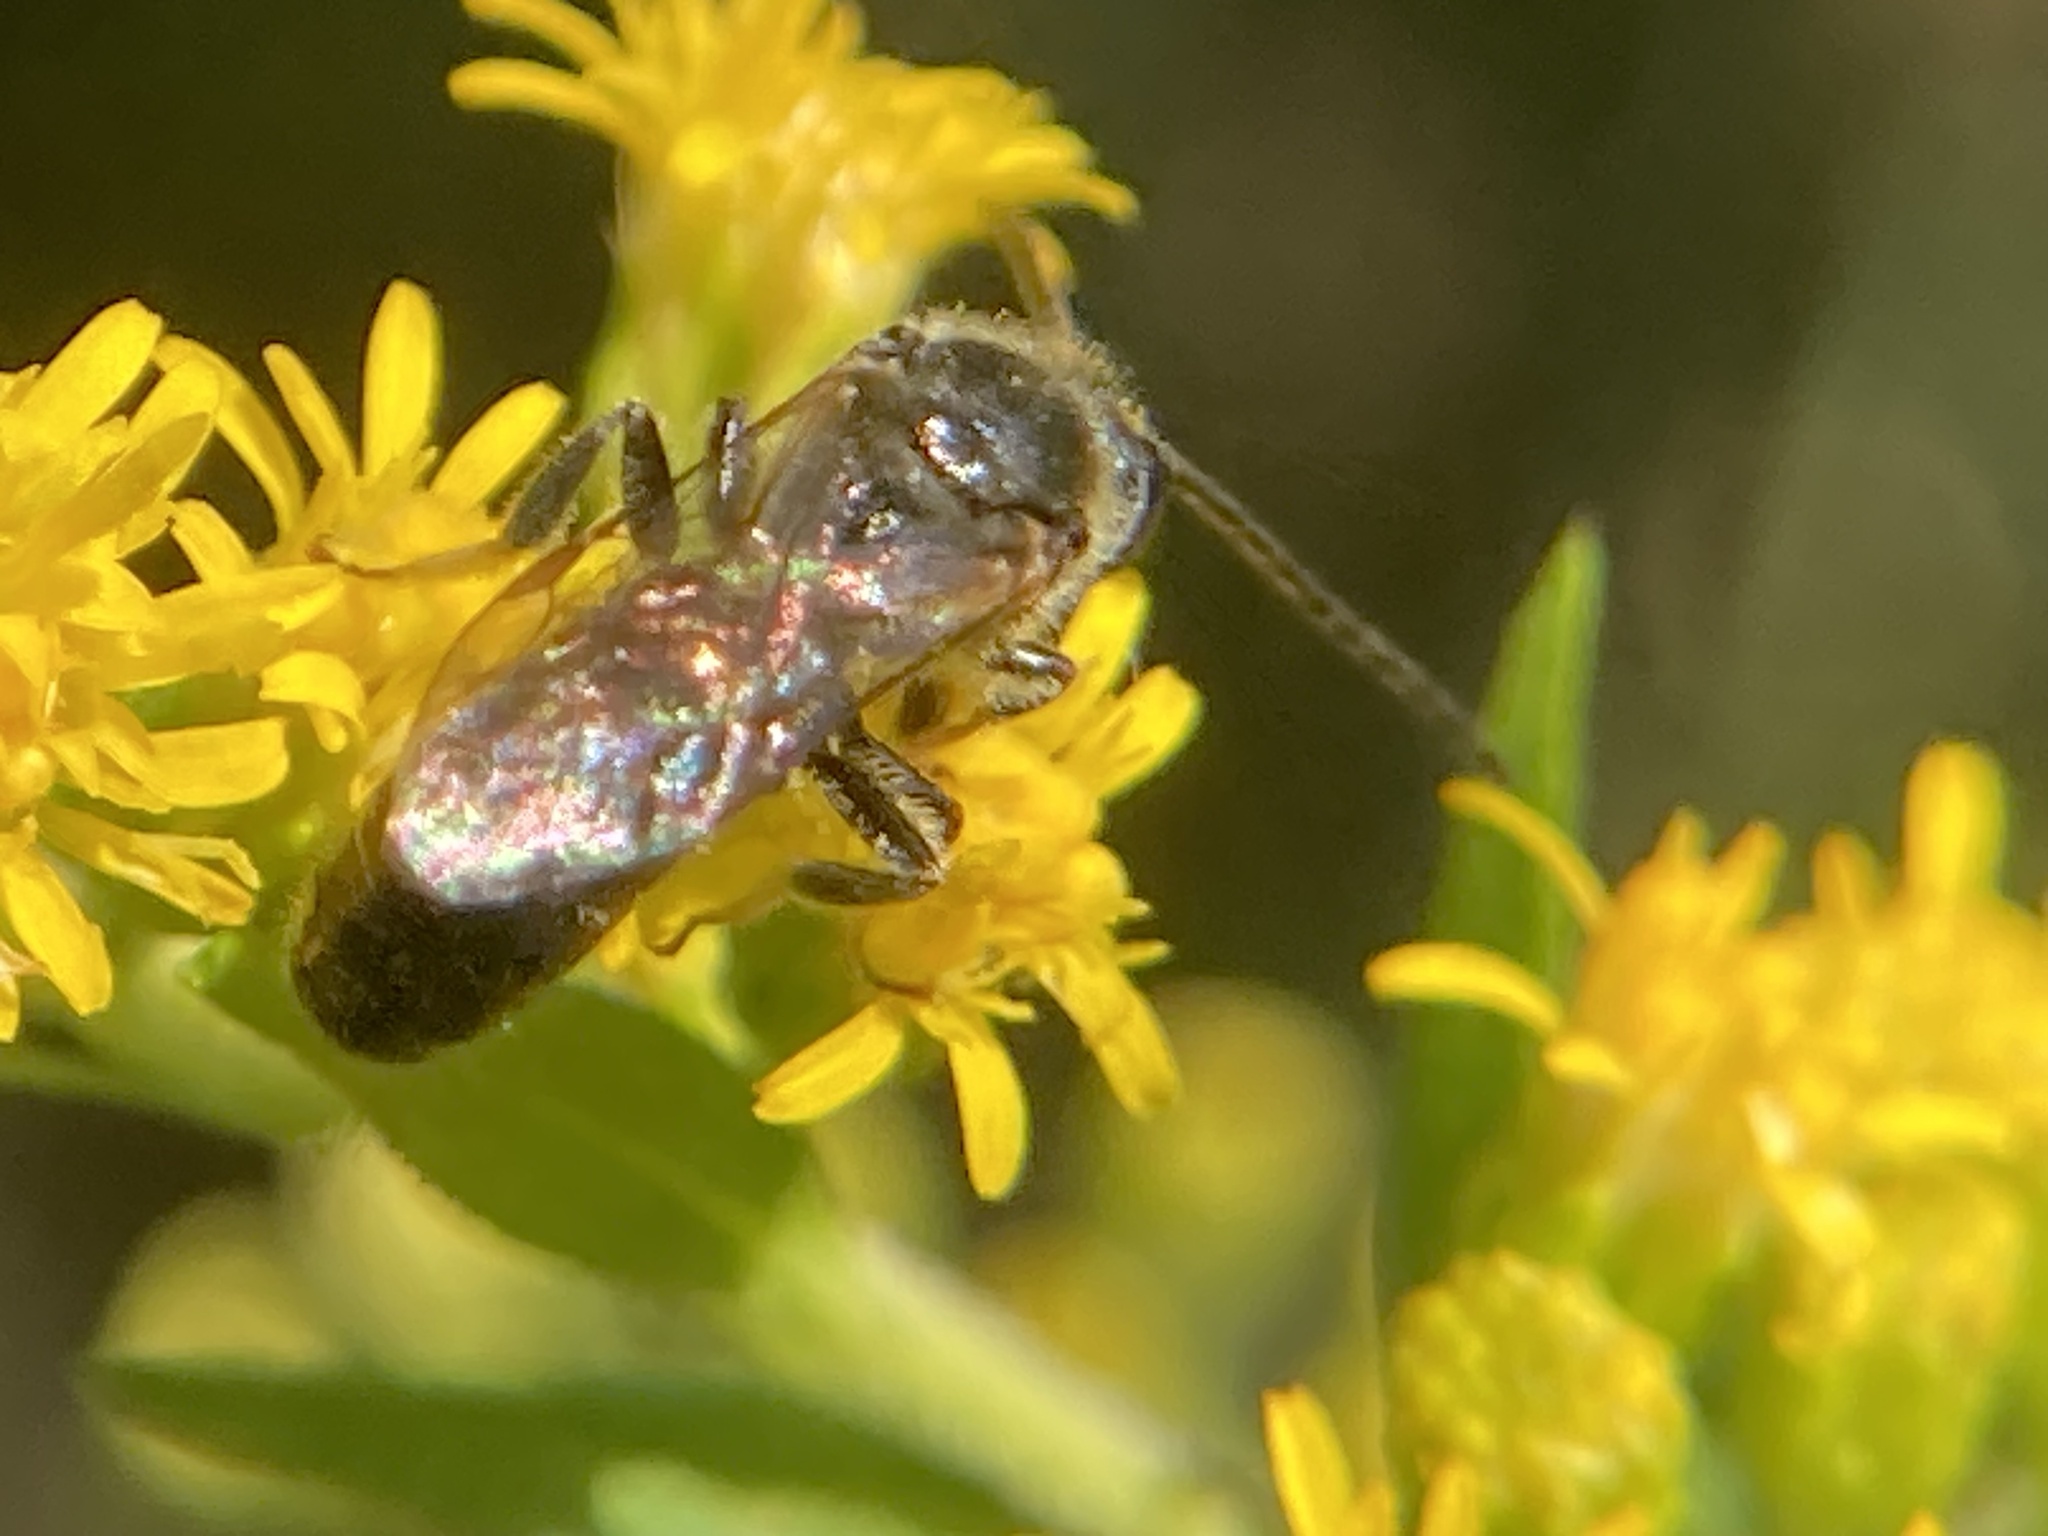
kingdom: Animalia
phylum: Arthropoda
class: Insecta
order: Hymenoptera
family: Halictidae
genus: Dialictus
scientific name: Dialictus
